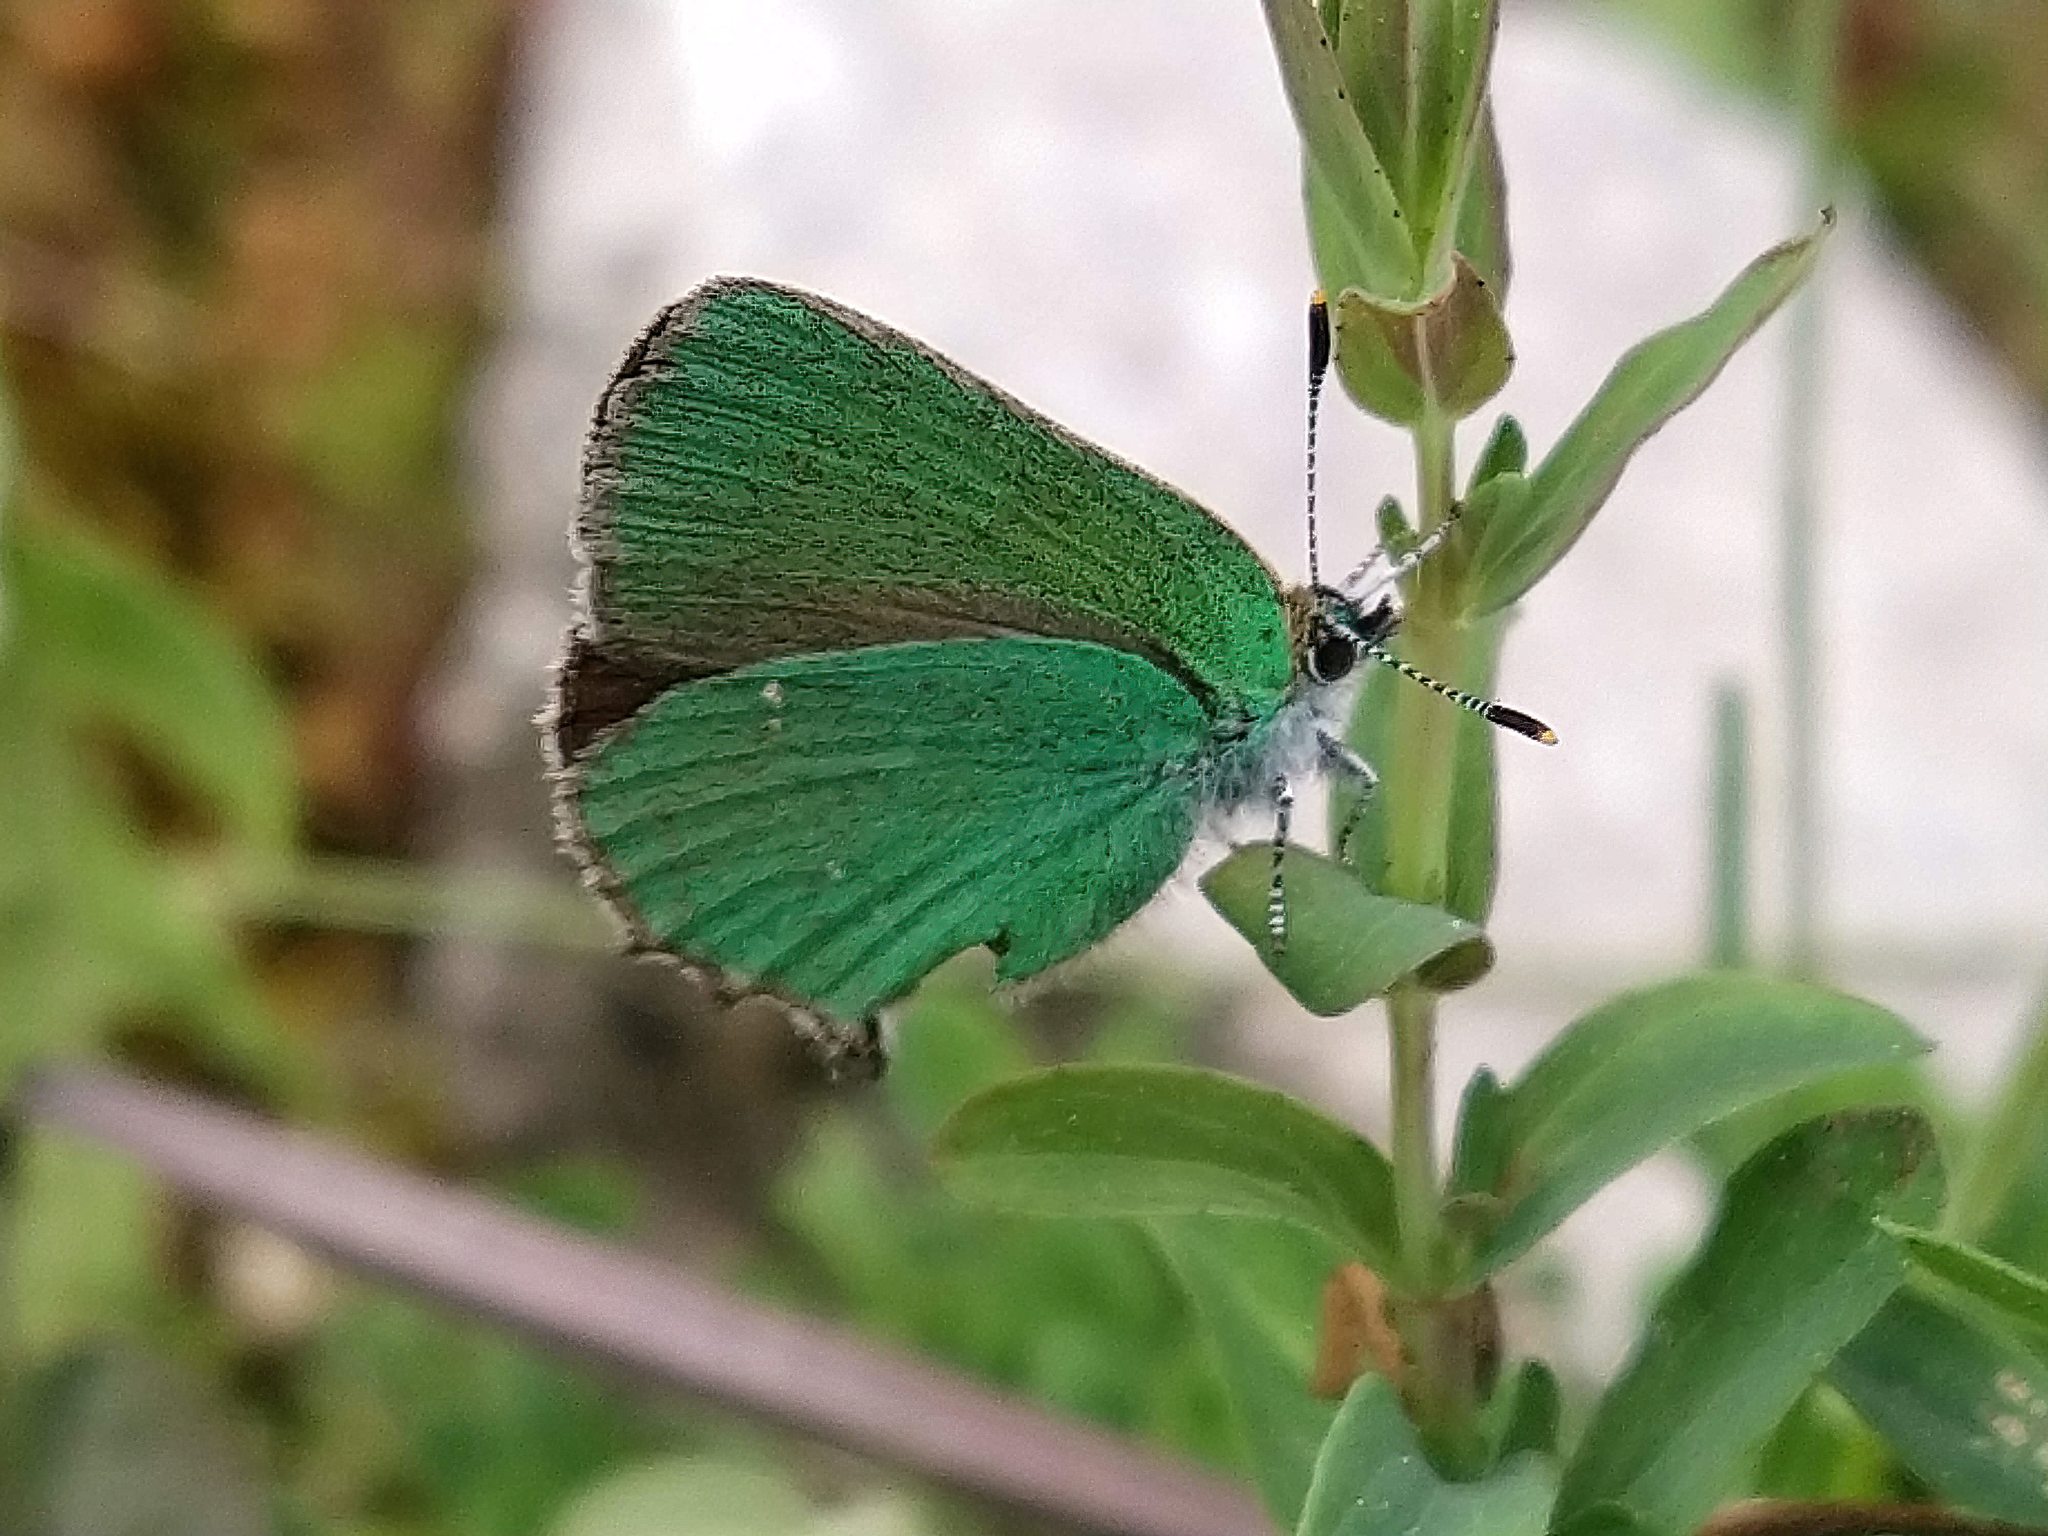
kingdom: Animalia
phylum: Arthropoda
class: Insecta
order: Lepidoptera
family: Lycaenidae
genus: Callophrys
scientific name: Callophrys rubi
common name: Green hairstreak
